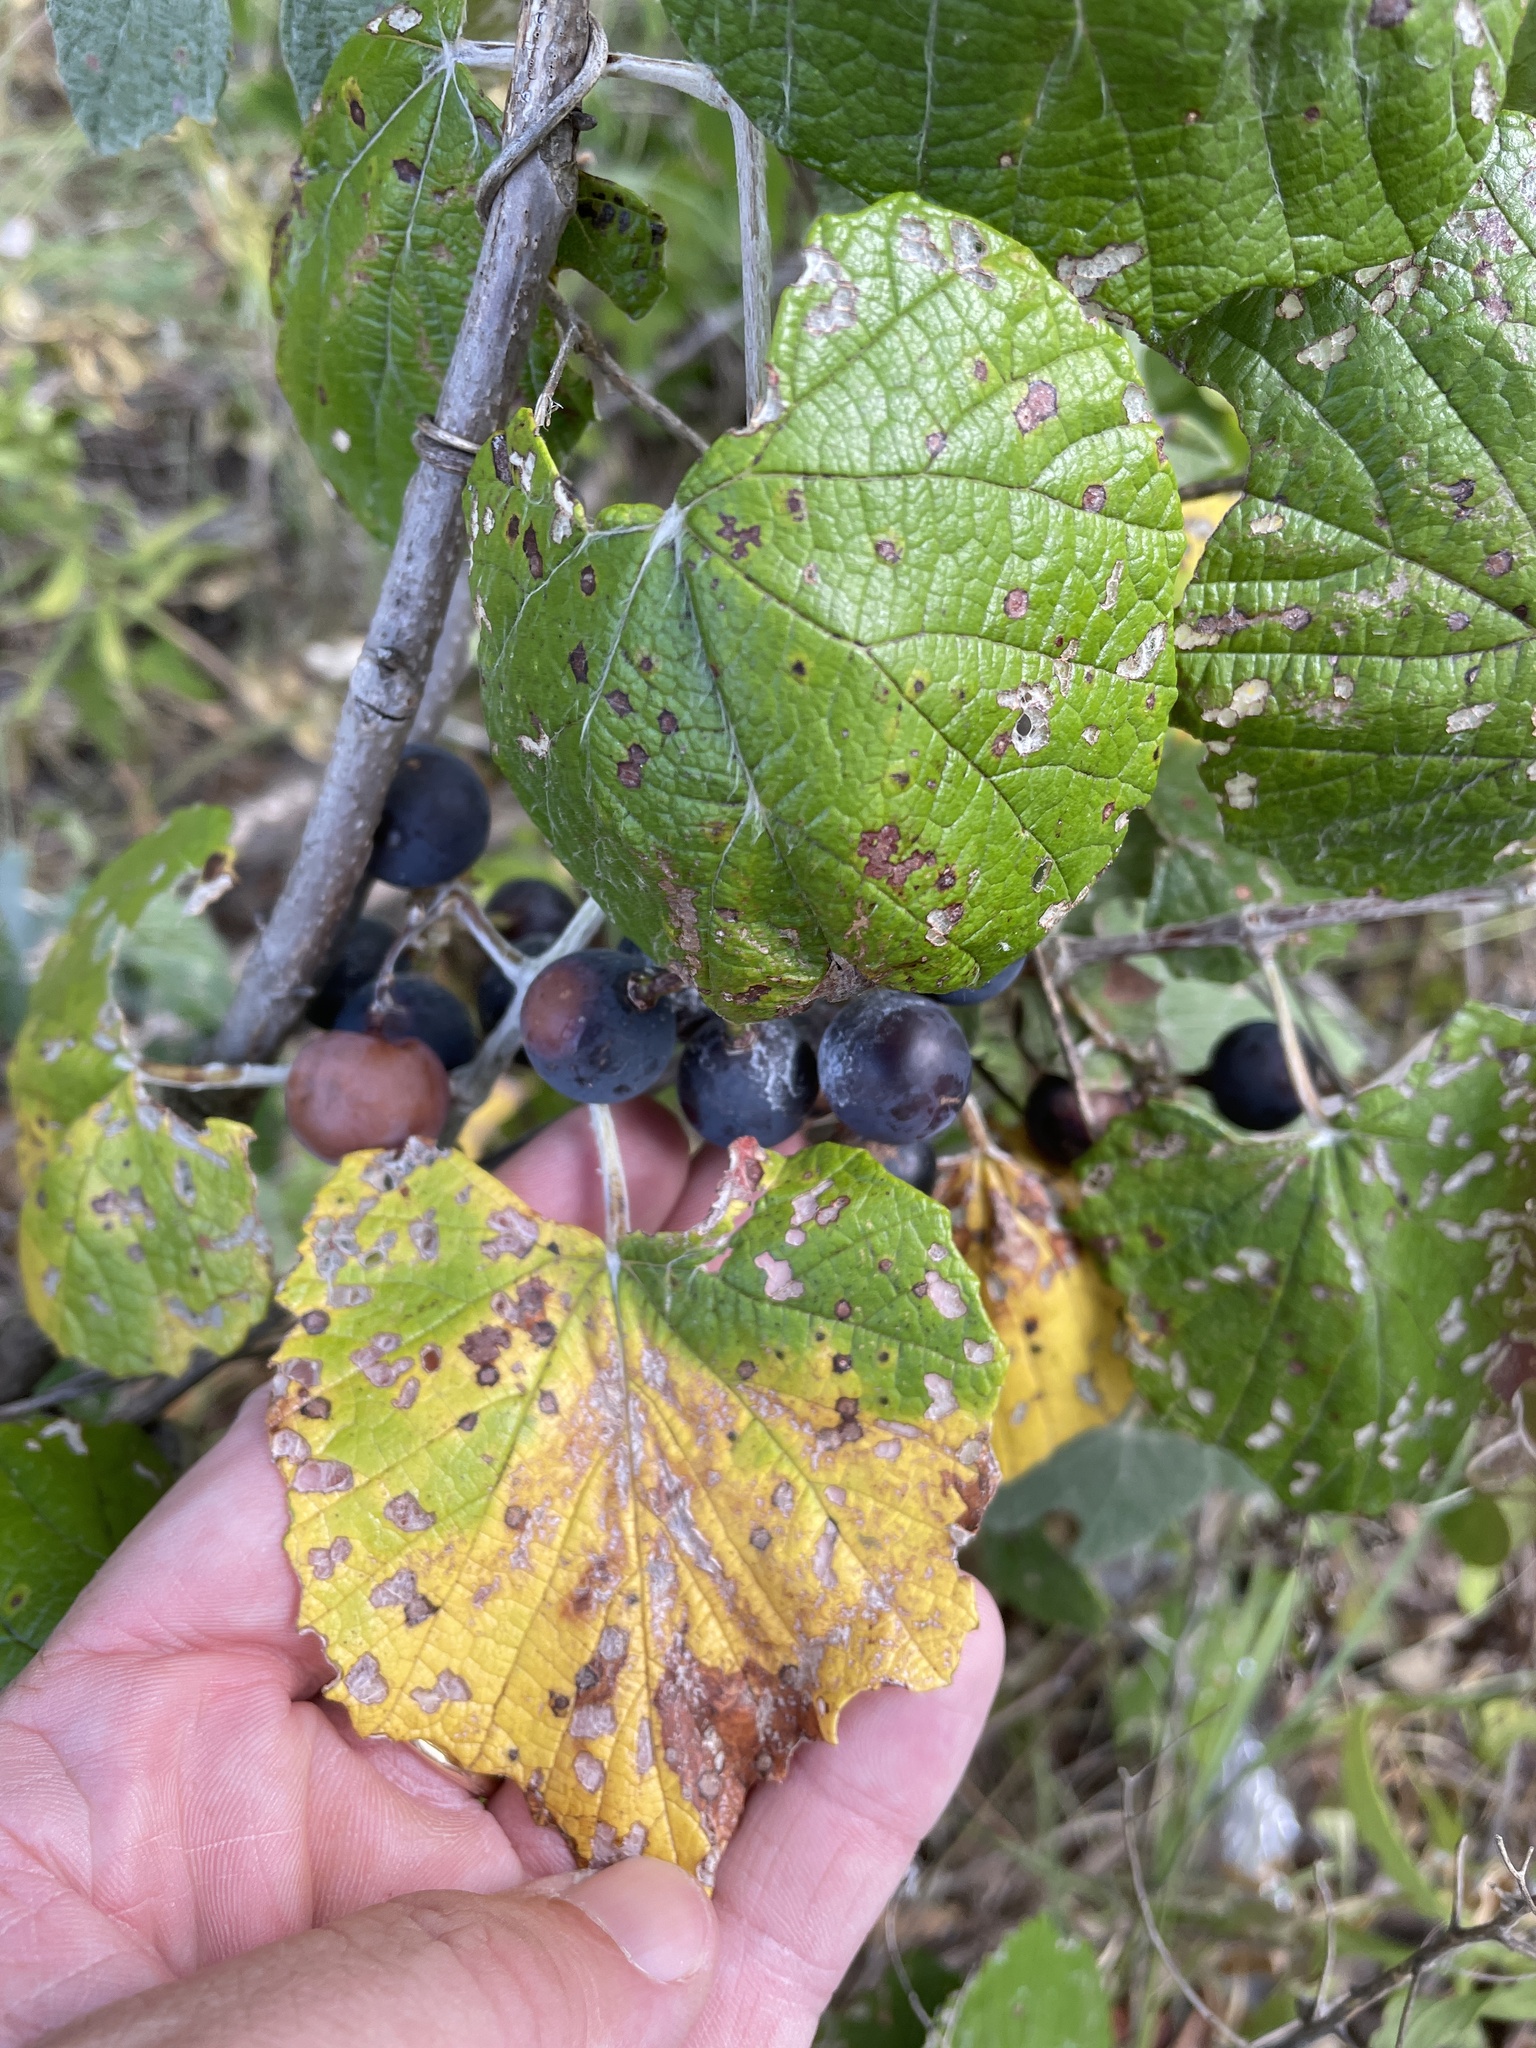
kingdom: Plantae
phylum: Tracheophyta
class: Magnoliopsida
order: Vitales
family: Vitaceae
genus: Vitis
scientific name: Vitis mustangensis
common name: Mustang grape
